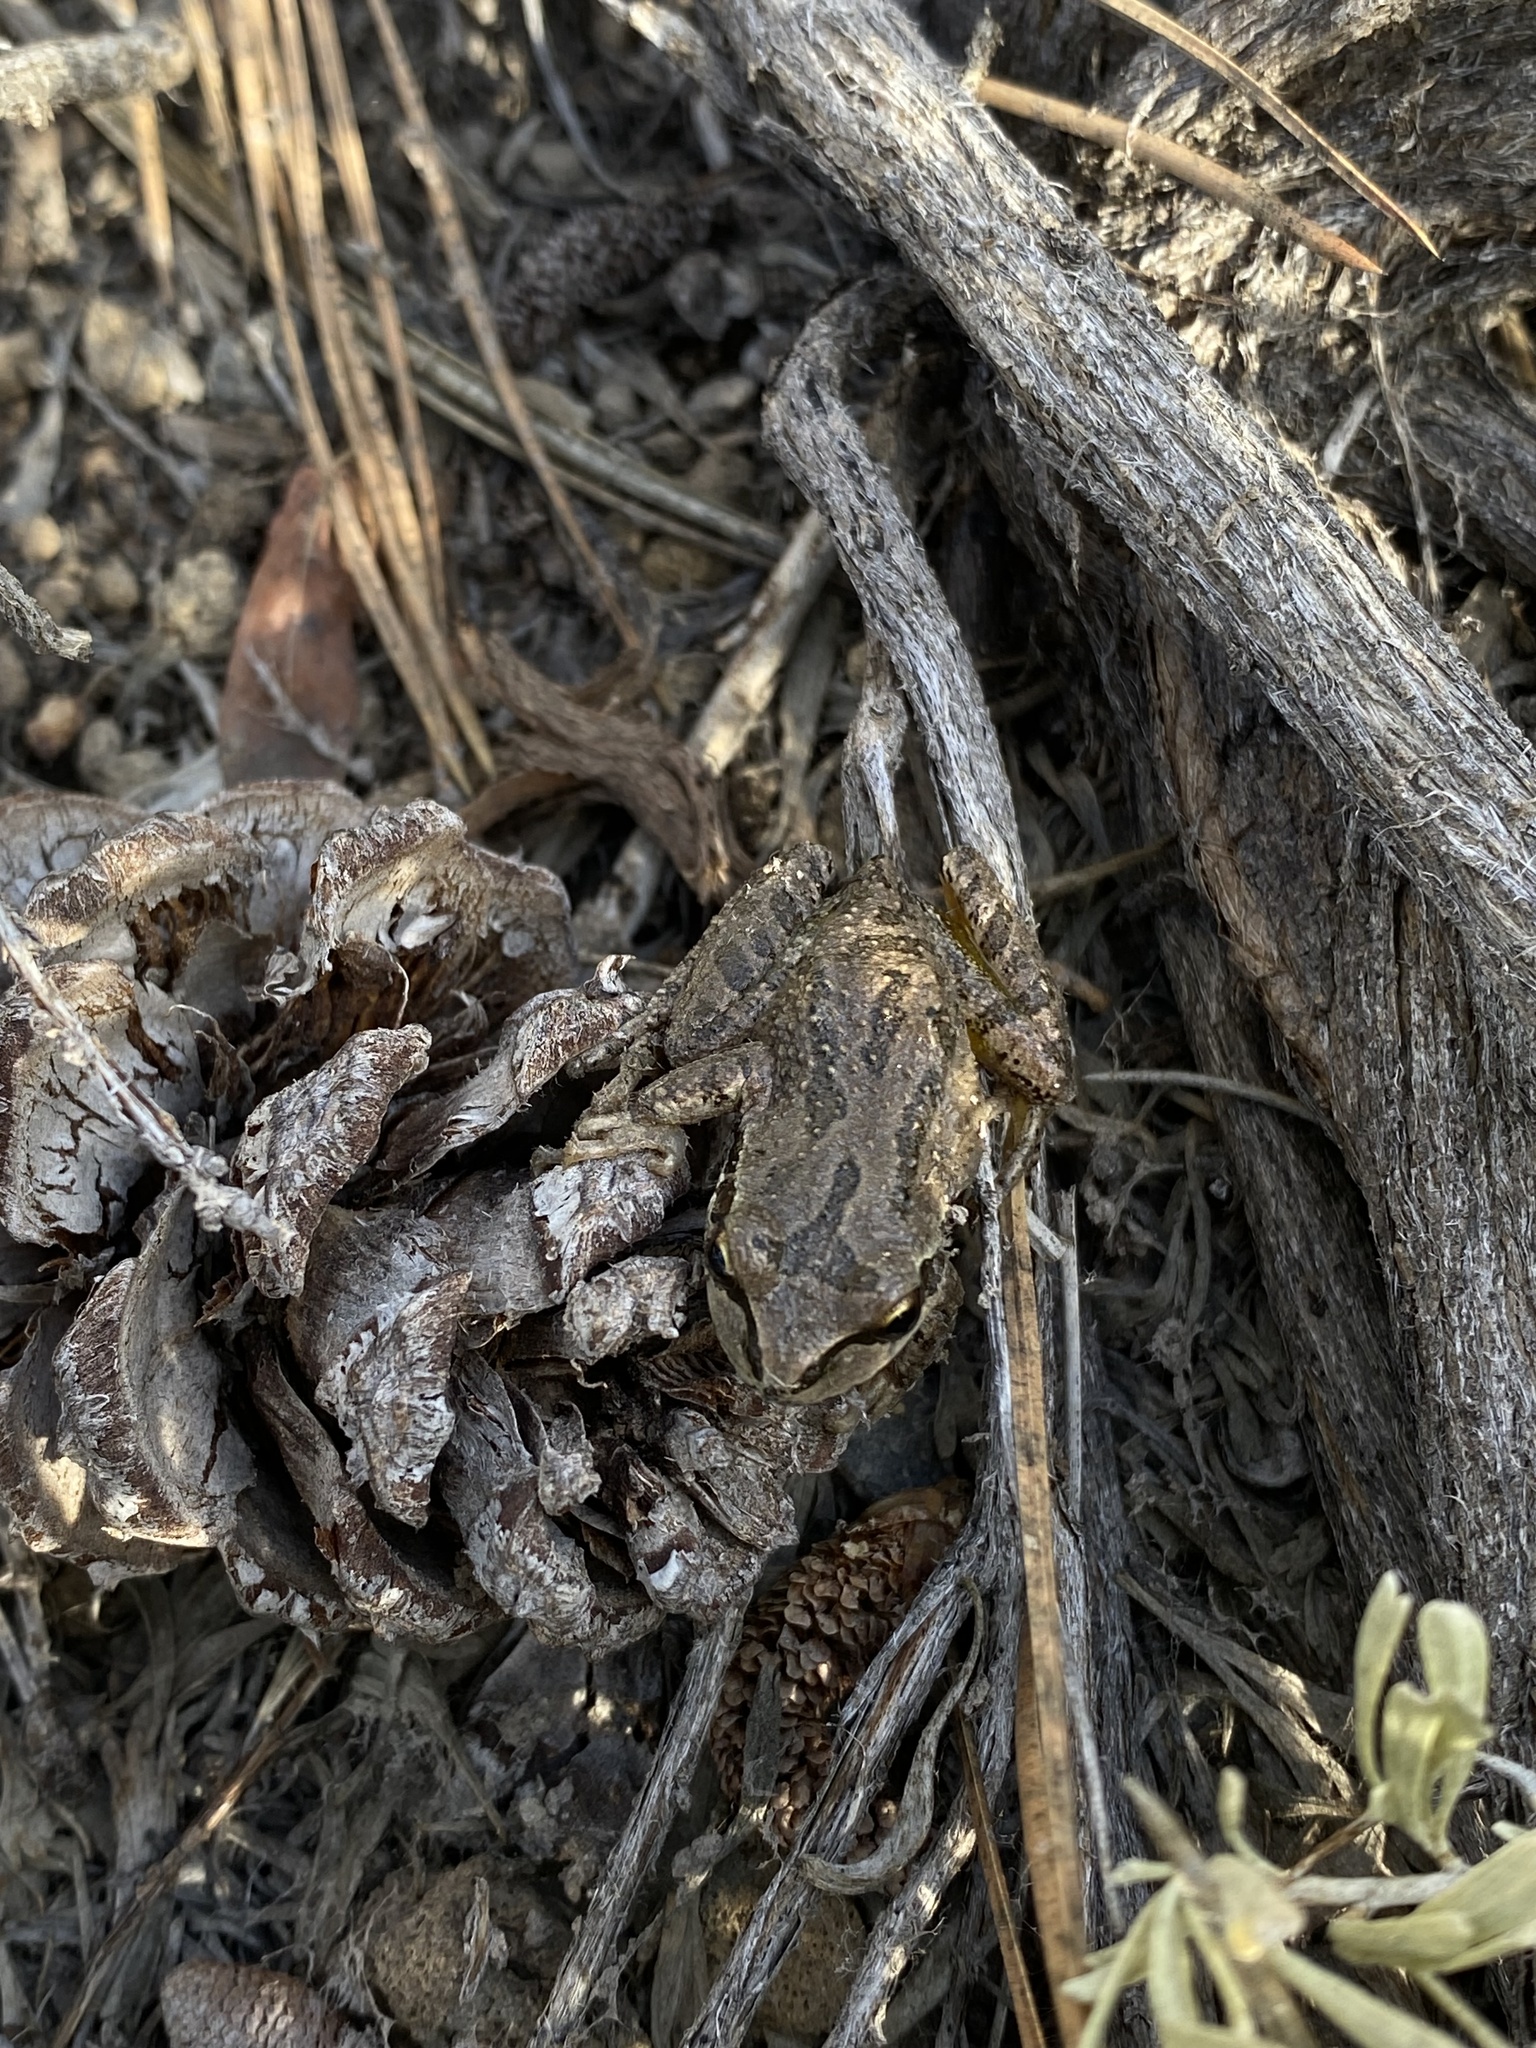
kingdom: Animalia
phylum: Chordata
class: Amphibia
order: Anura
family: Hylidae
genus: Pseudacris
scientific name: Pseudacris regilla
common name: Pacific chorus frog
